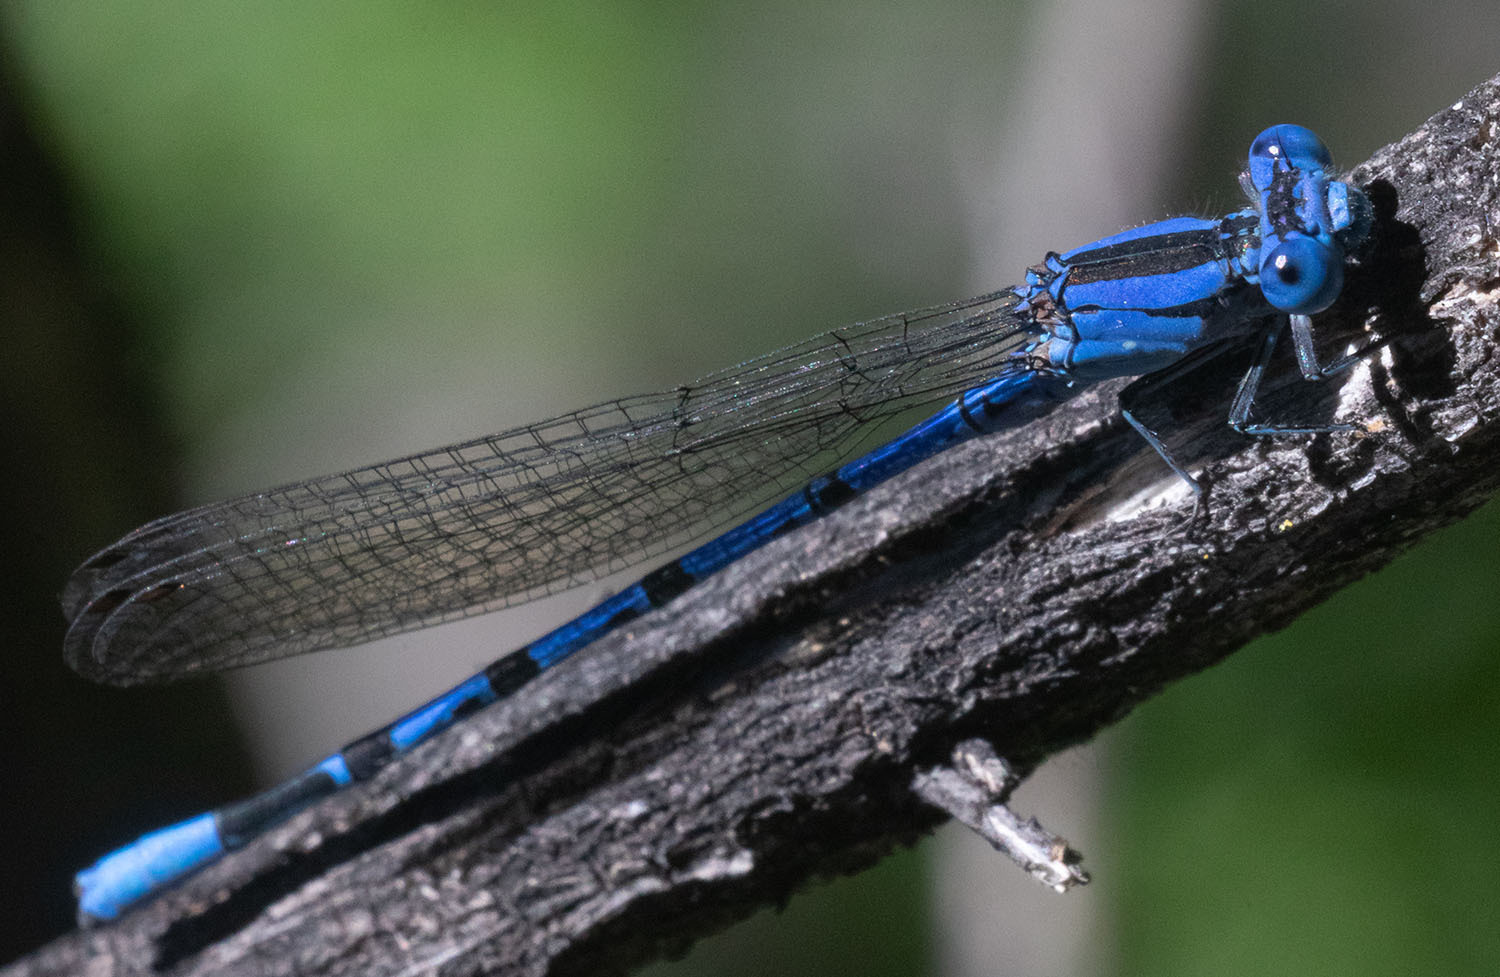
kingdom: Animalia
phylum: Arthropoda
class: Insecta
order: Odonata
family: Coenagrionidae
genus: Argia
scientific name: Argia vivida
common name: Vivid dancer
